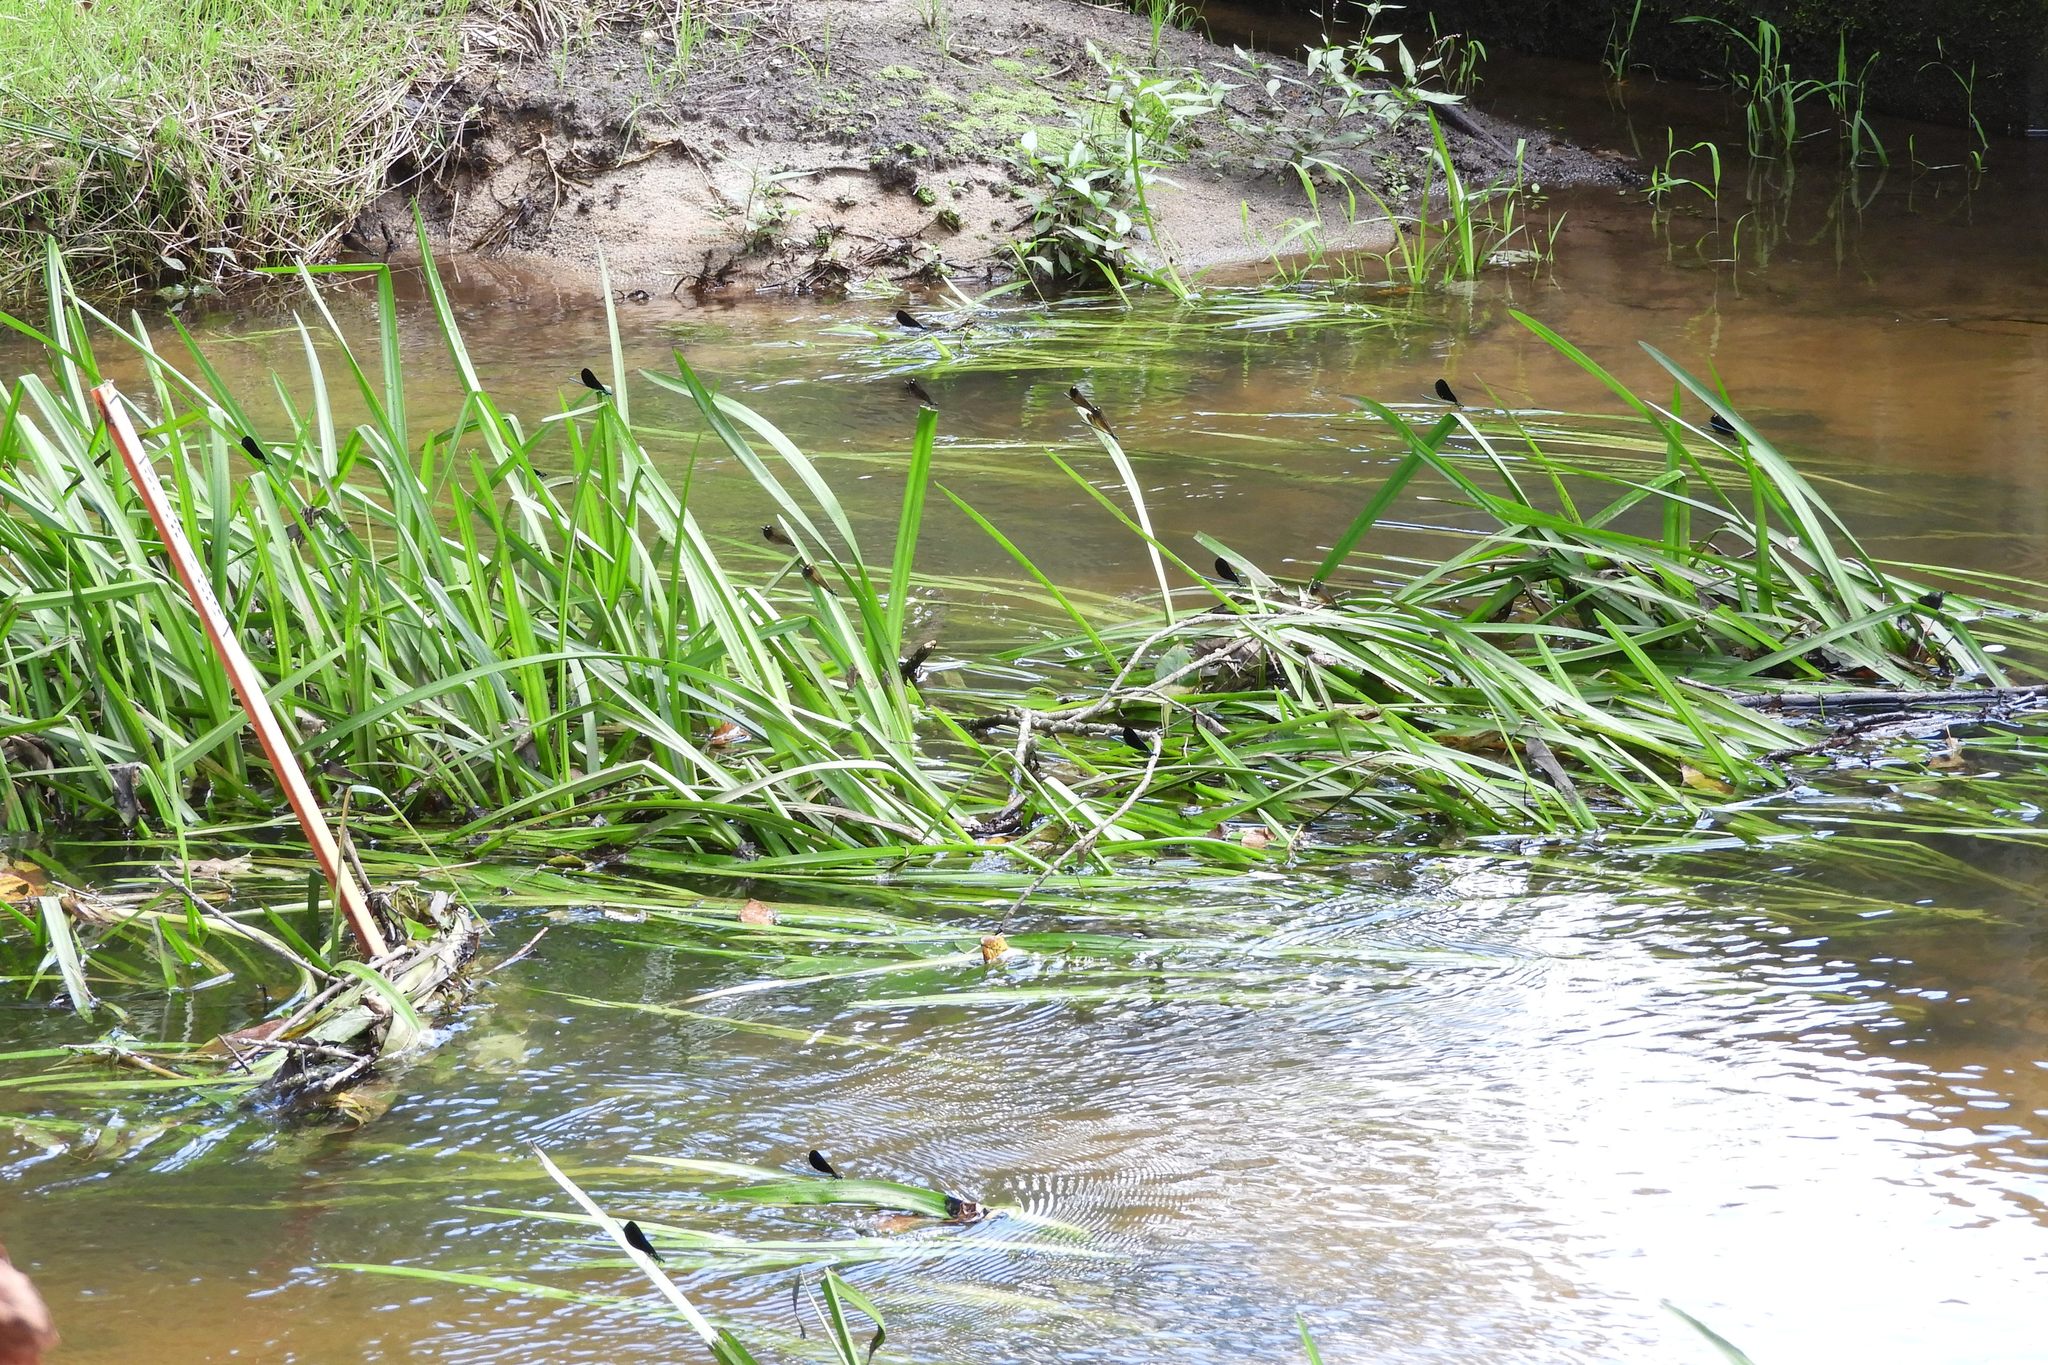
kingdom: Animalia
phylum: Arthropoda
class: Insecta
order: Odonata
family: Calopterygidae
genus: Calopteryx
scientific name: Calopteryx maculata
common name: Ebony jewelwing
